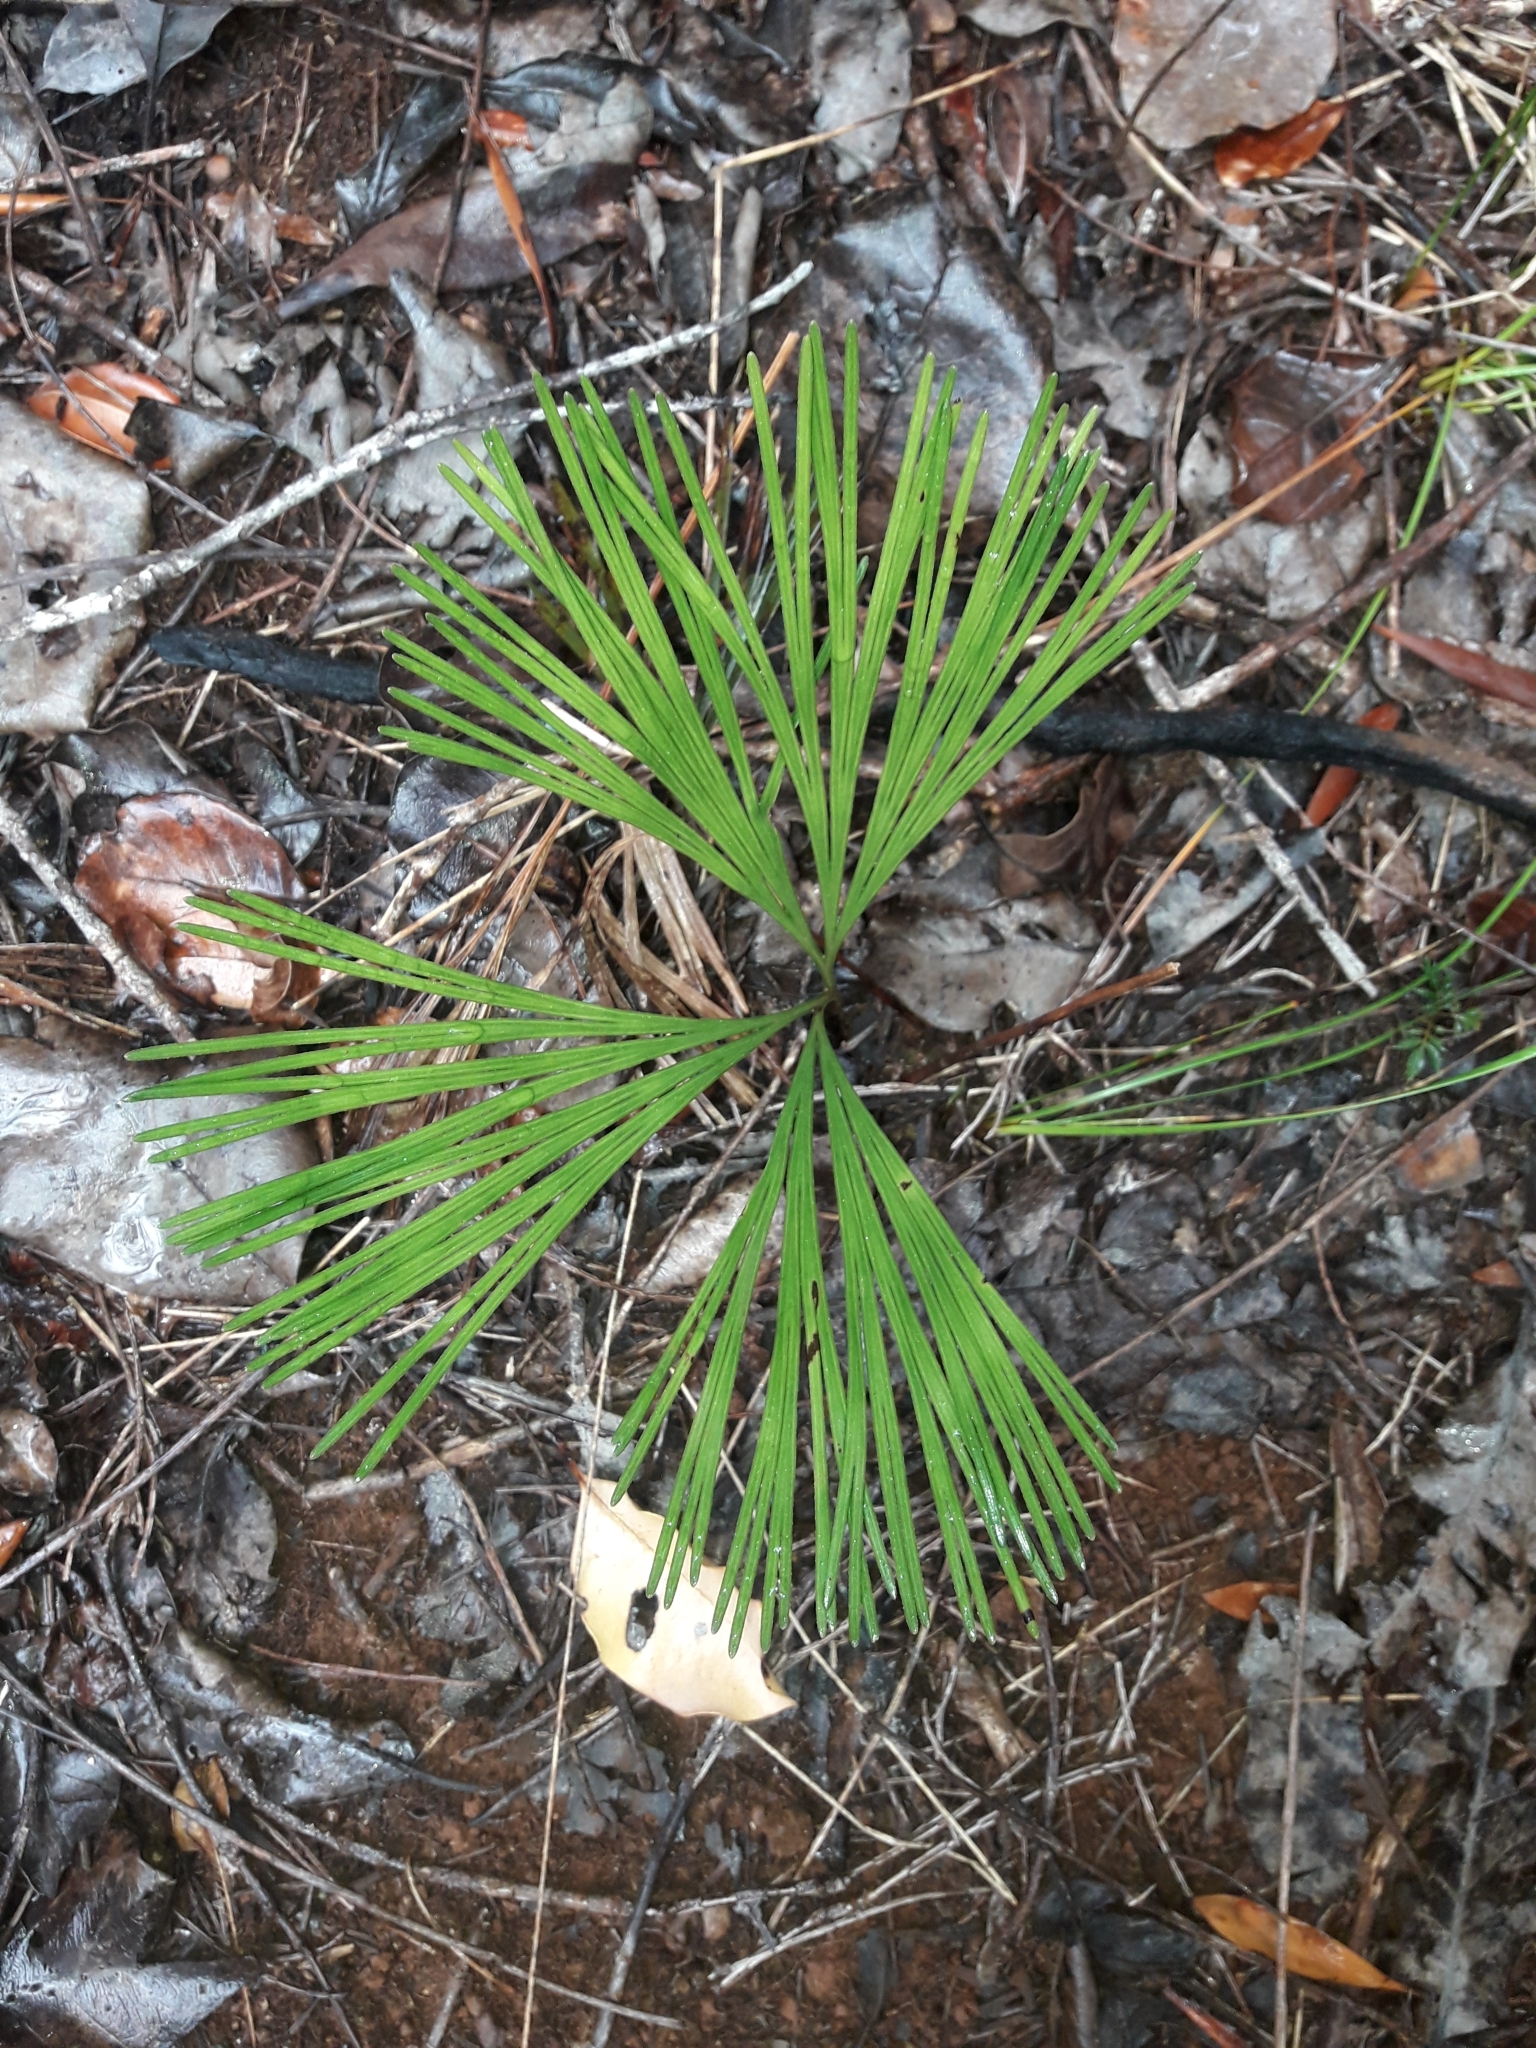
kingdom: Plantae
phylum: Tracheophyta
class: Polypodiopsida
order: Schizaeales
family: Schizaeaceae
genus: Schizaea
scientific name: Schizaea dichotoma
